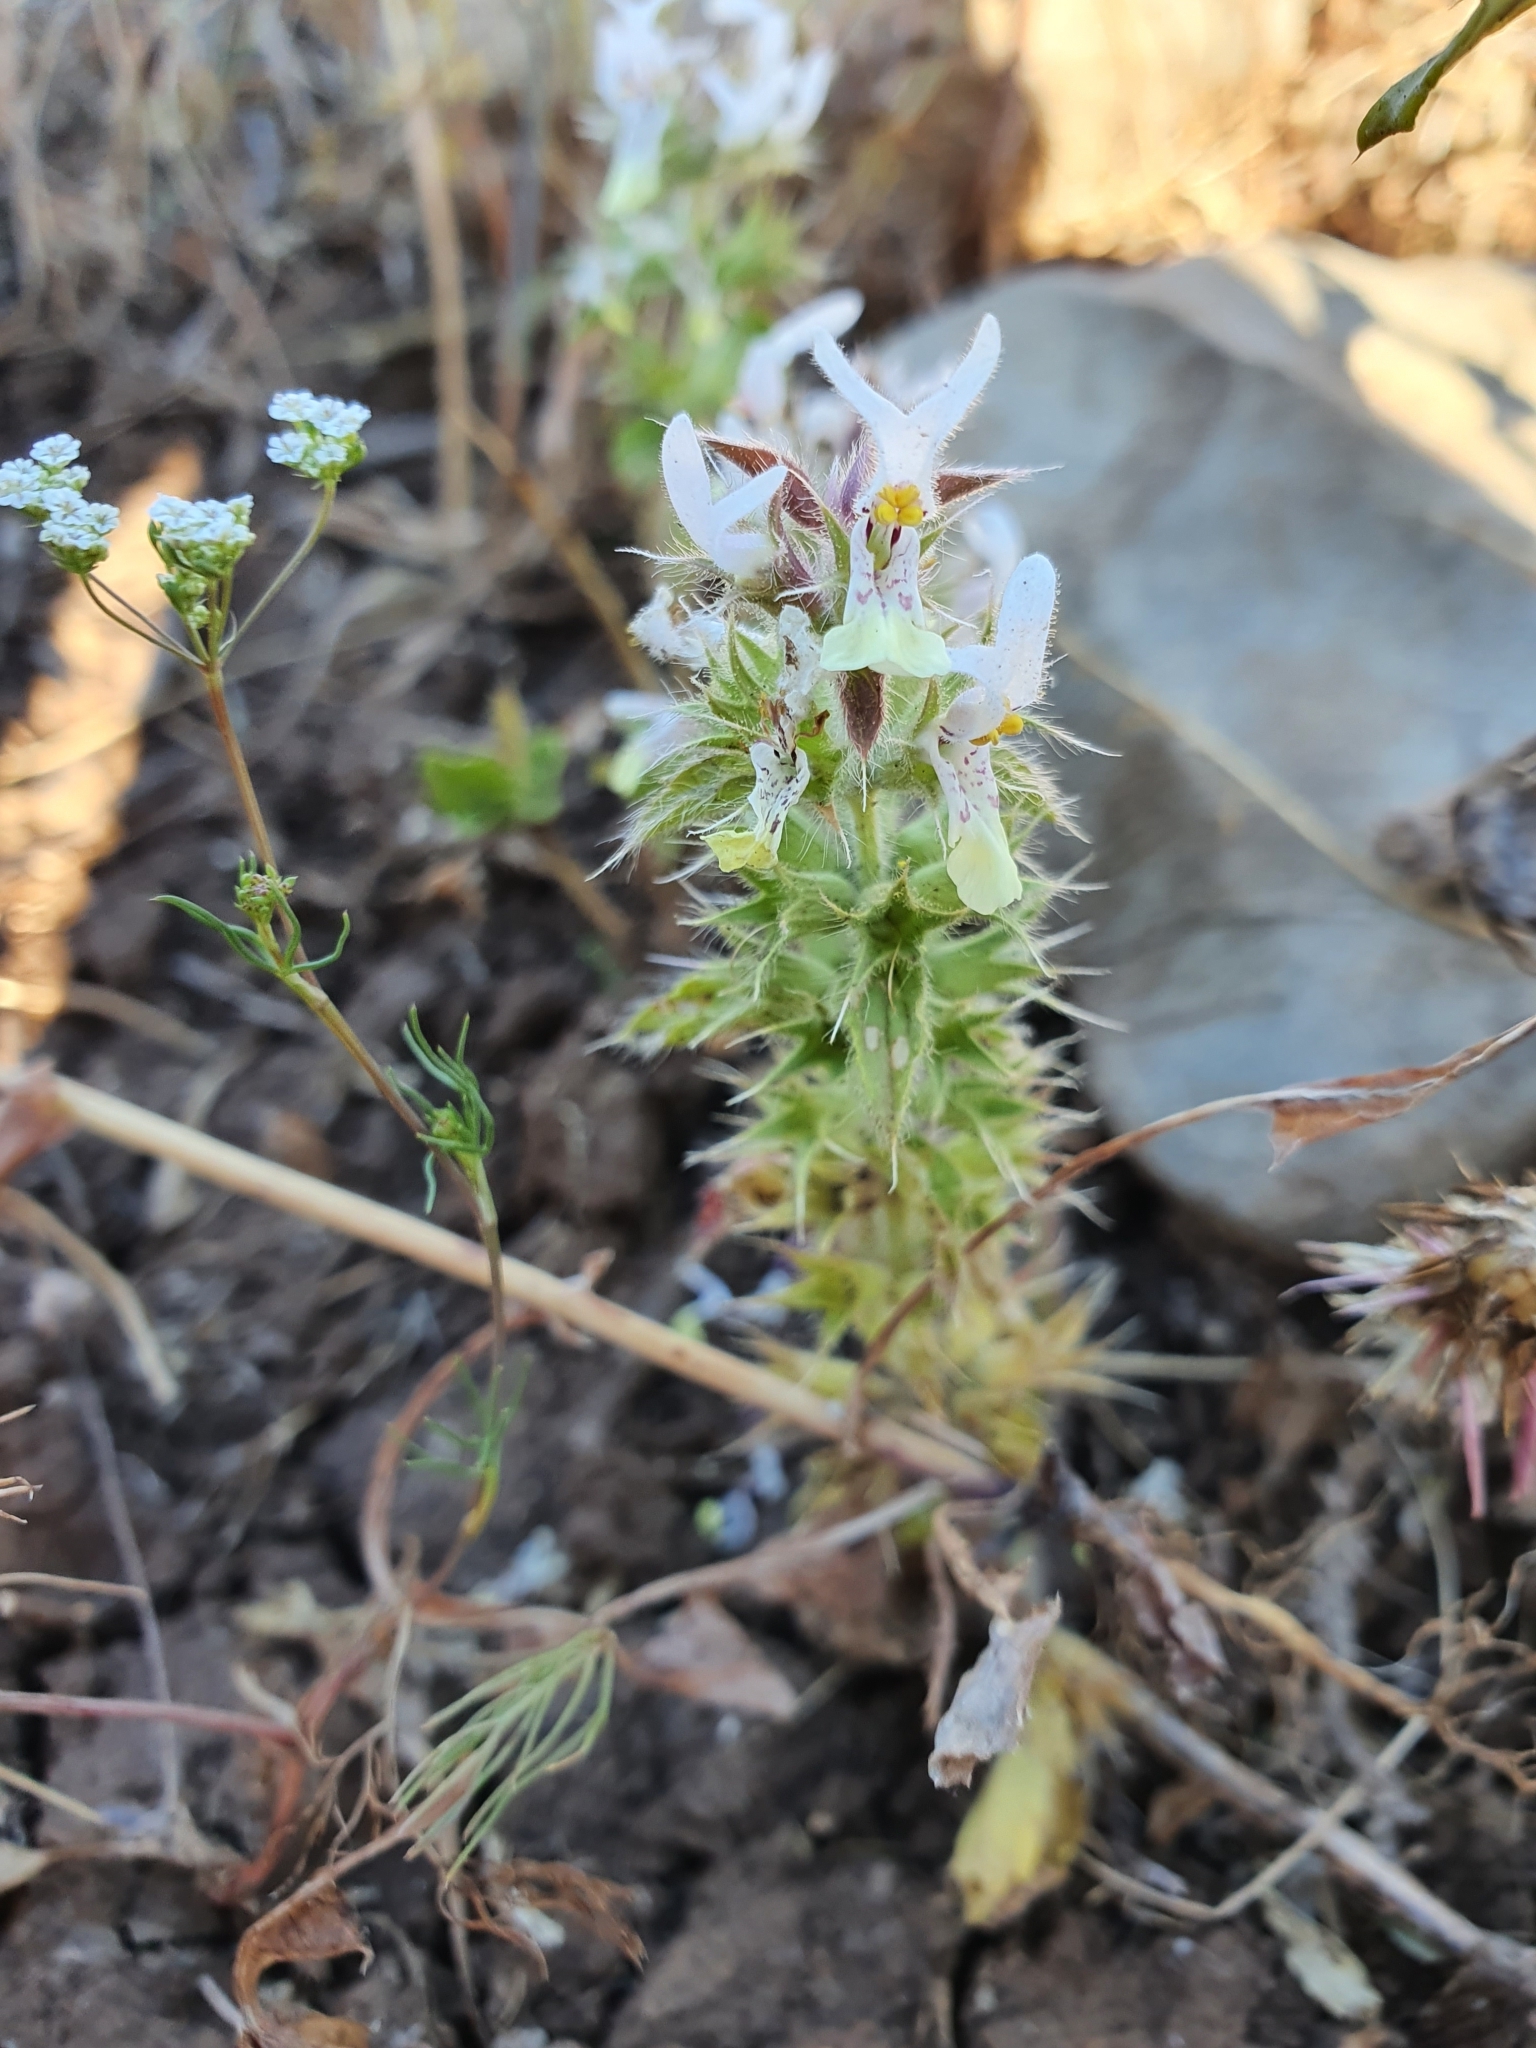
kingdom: Plantae
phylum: Tracheophyta
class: Magnoliopsida
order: Lamiales
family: Lamiaceae
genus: Stachys
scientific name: Stachys ocymastrum
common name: Italian hedgenettle
